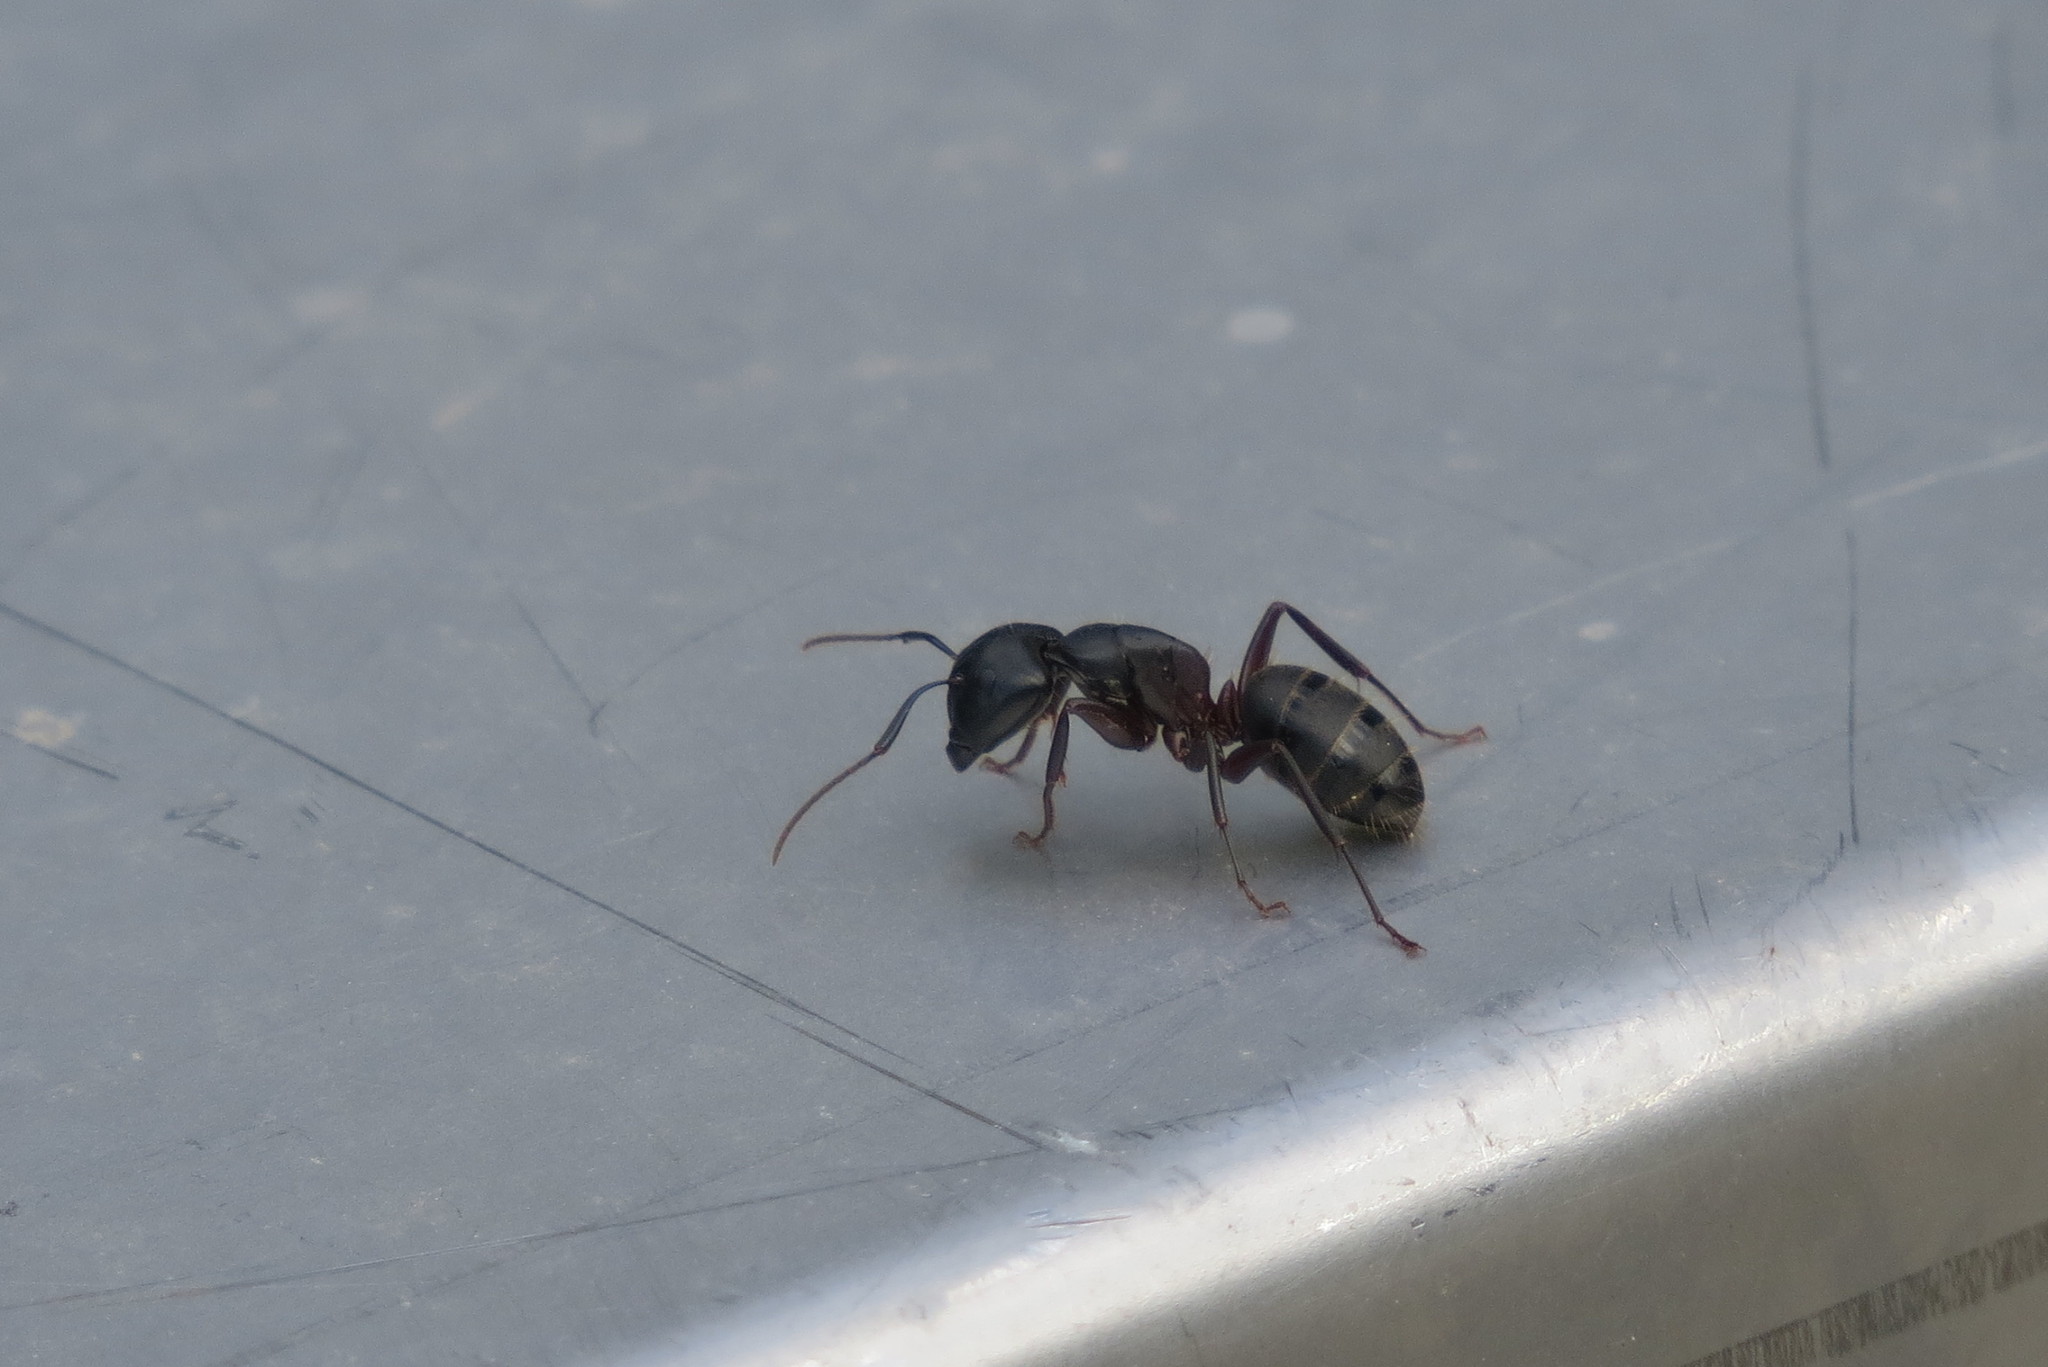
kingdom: Animalia
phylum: Arthropoda
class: Insecta
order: Hymenoptera
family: Formicidae
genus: Camponotus
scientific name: Camponotus herculeanus
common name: Hercules ant
